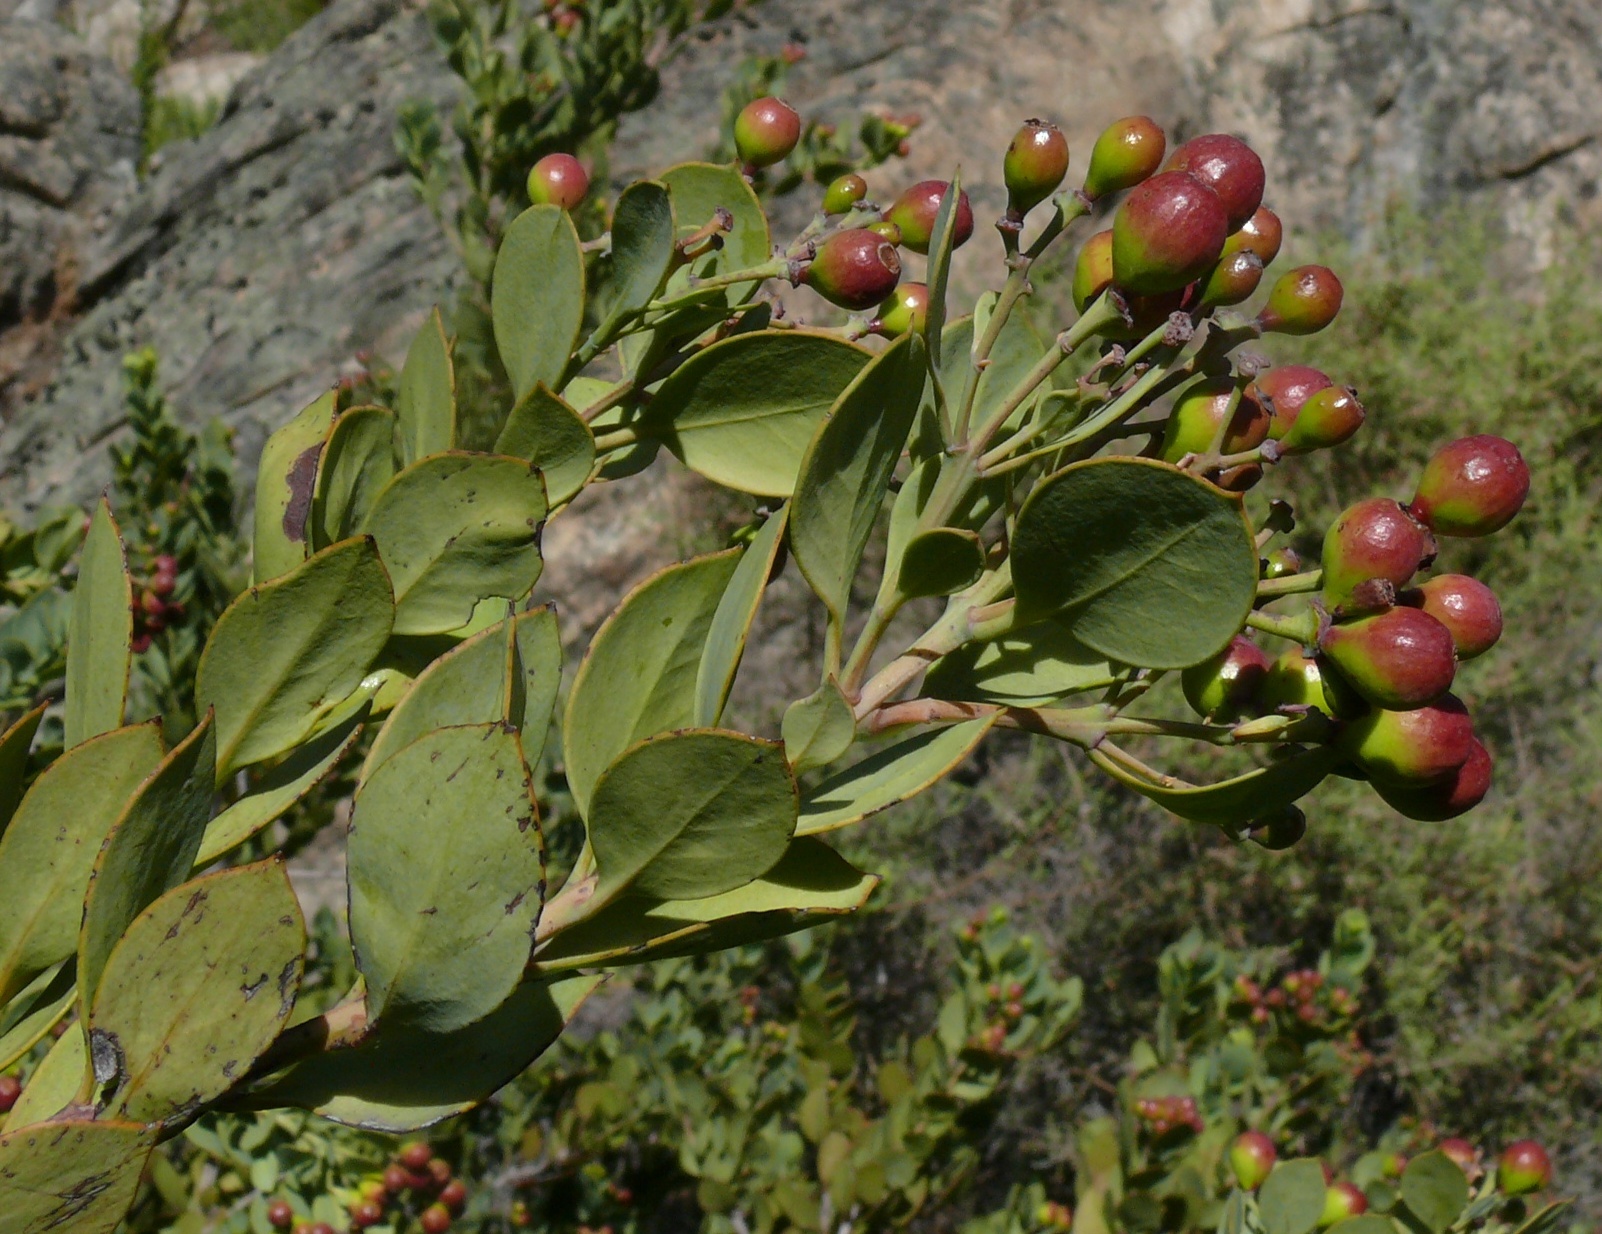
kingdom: Plantae
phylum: Tracheophyta
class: Magnoliopsida
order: Santalales
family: Santalaceae
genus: Osyris
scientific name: Osyris compressa
